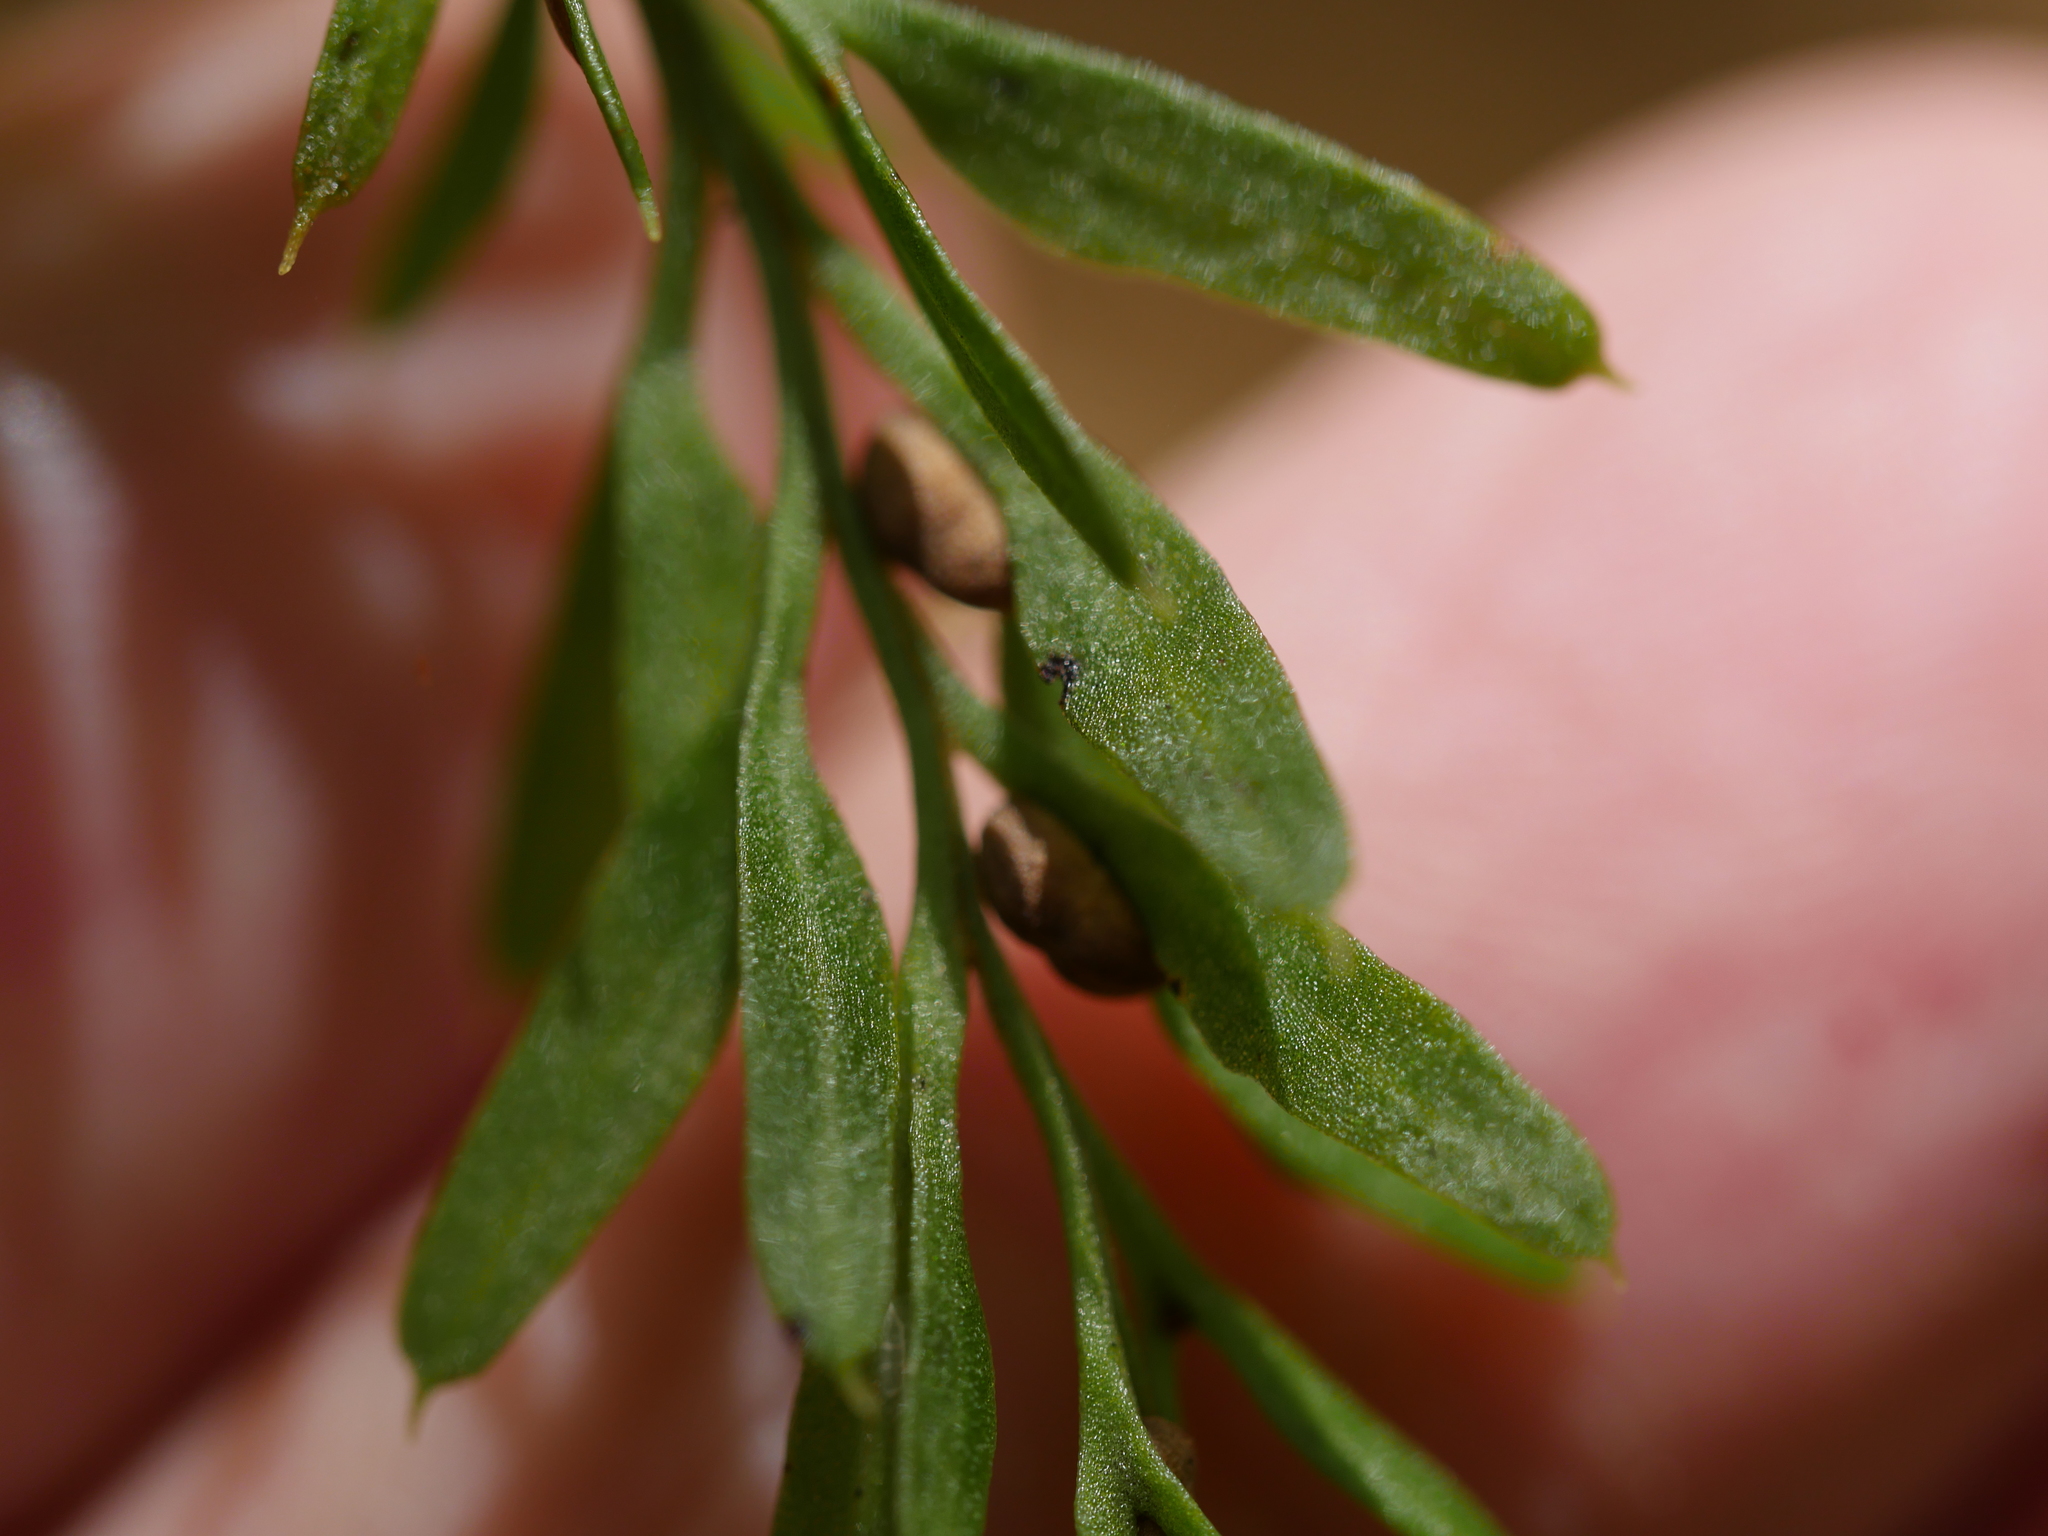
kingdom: Plantae
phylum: Tracheophyta
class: Polypodiopsida
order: Psilotales
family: Psilotaceae
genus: Tmesipteris
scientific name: Tmesipteris elongata
